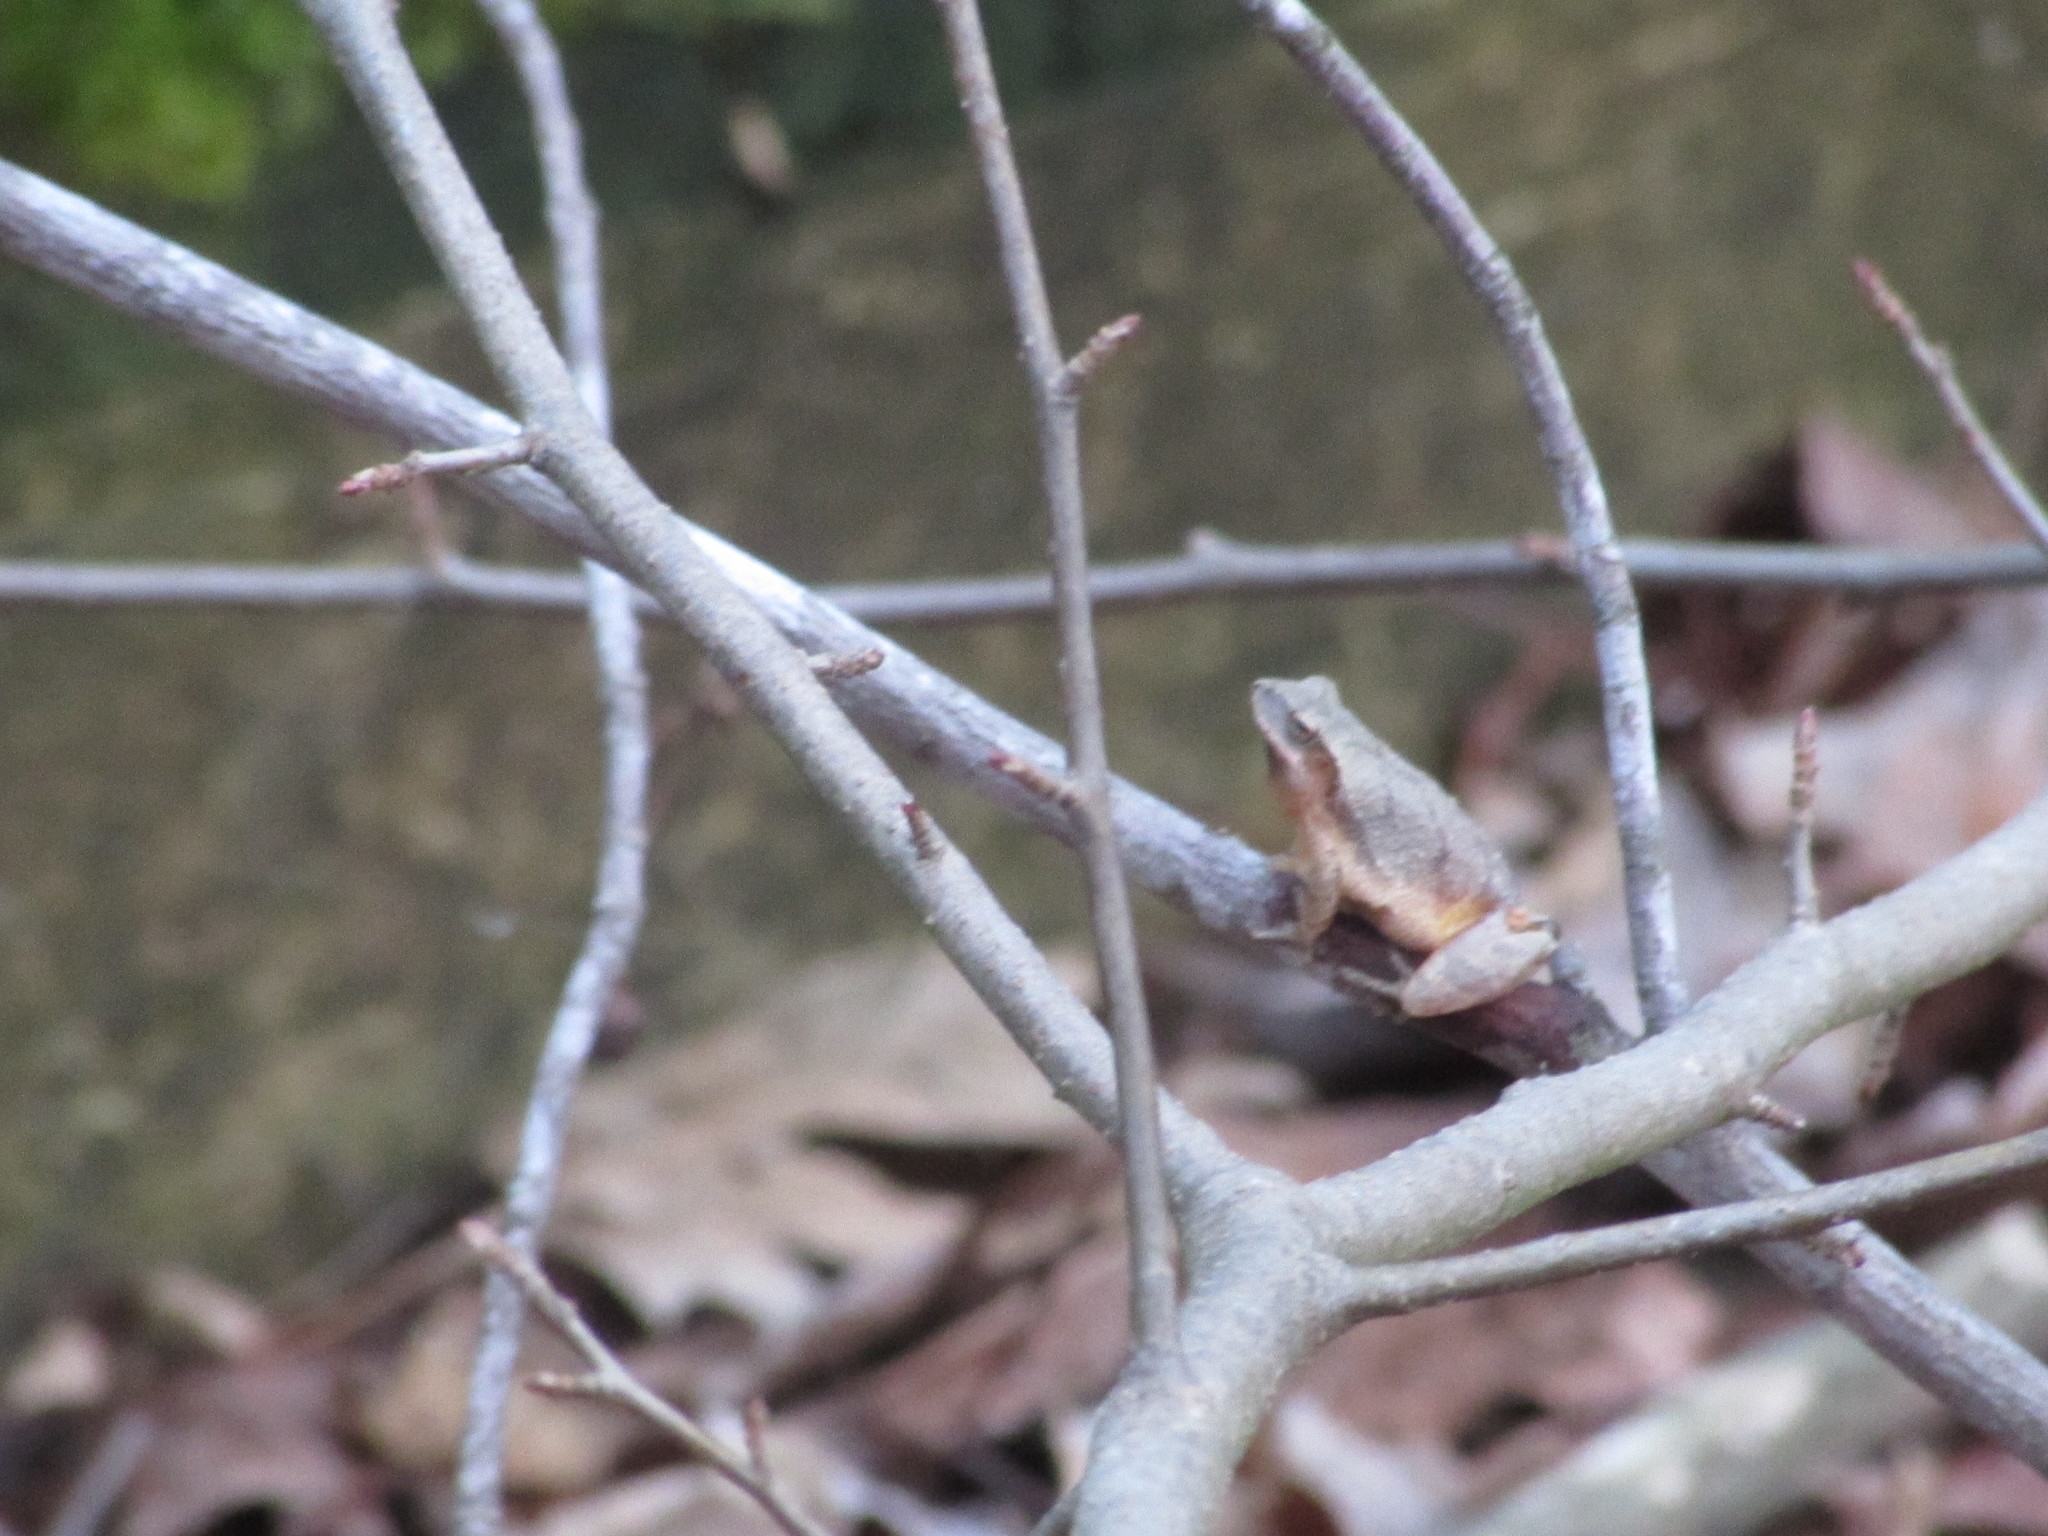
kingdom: Animalia
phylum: Chordata
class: Amphibia
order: Anura
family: Hylidae
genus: Pseudacris
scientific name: Pseudacris crucifer
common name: Spring peeper
